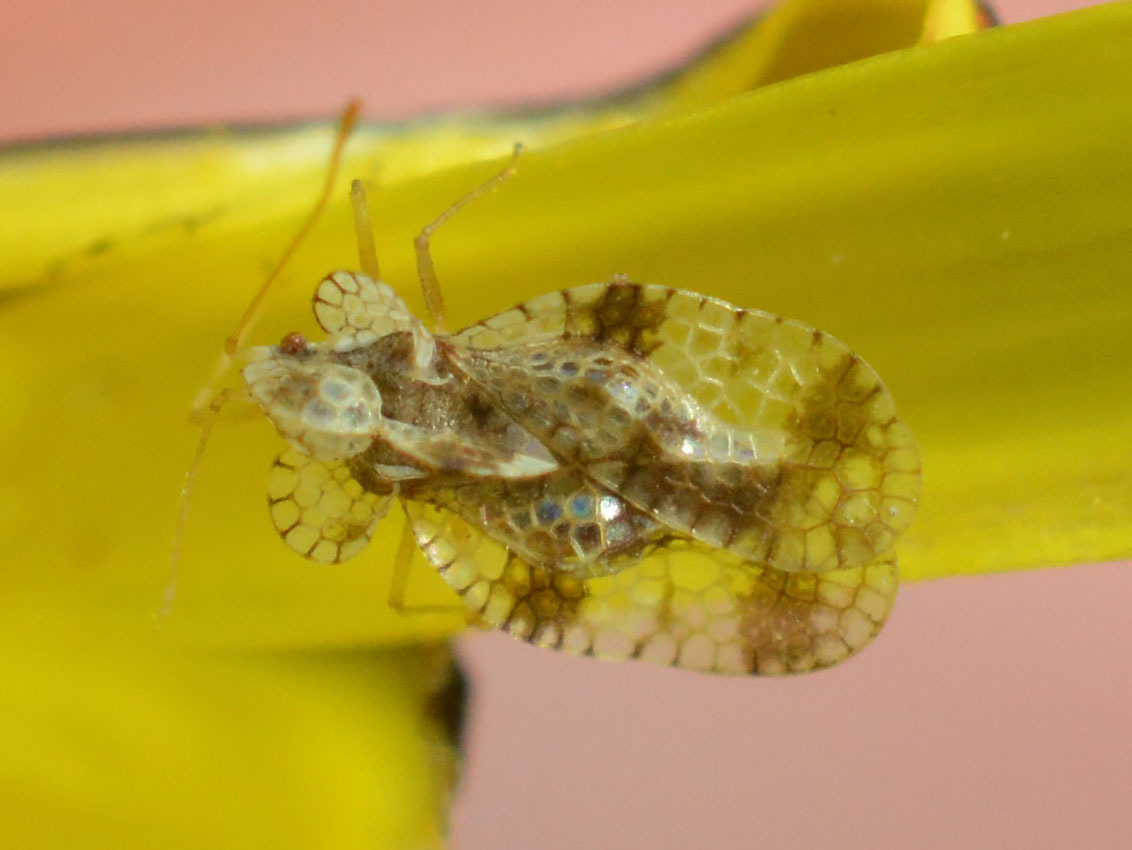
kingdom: Animalia
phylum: Arthropoda
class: Insecta
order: Hemiptera
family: Tingidae
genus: Stephanitis
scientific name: Stephanitis pyri
